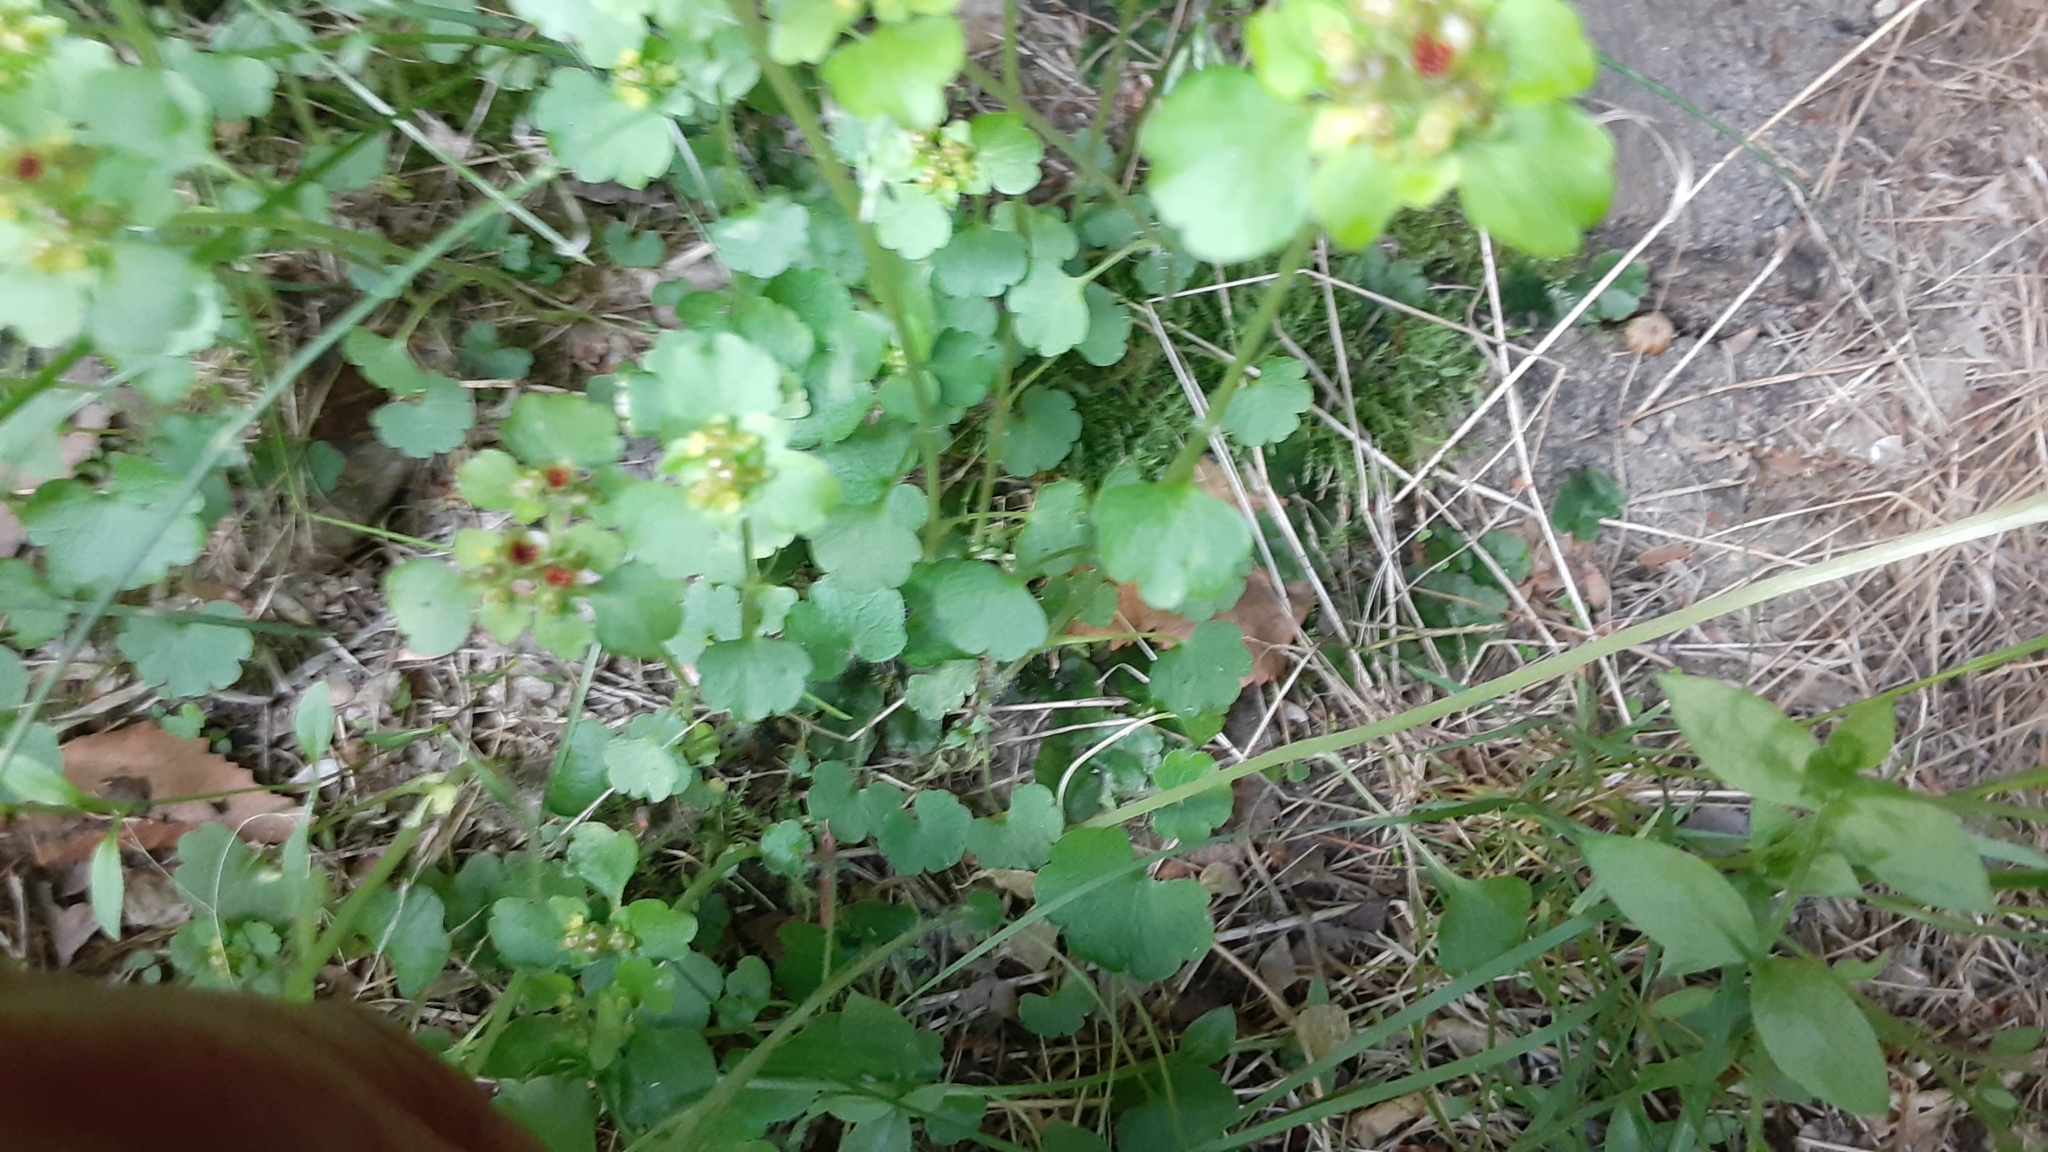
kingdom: Plantae
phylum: Tracheophyta
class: Magnoliopsida
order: Saxifragales
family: Saxifragaceae
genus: Chrysosplenium
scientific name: Chrysosplenium tetrandrum
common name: Green saxifrage
